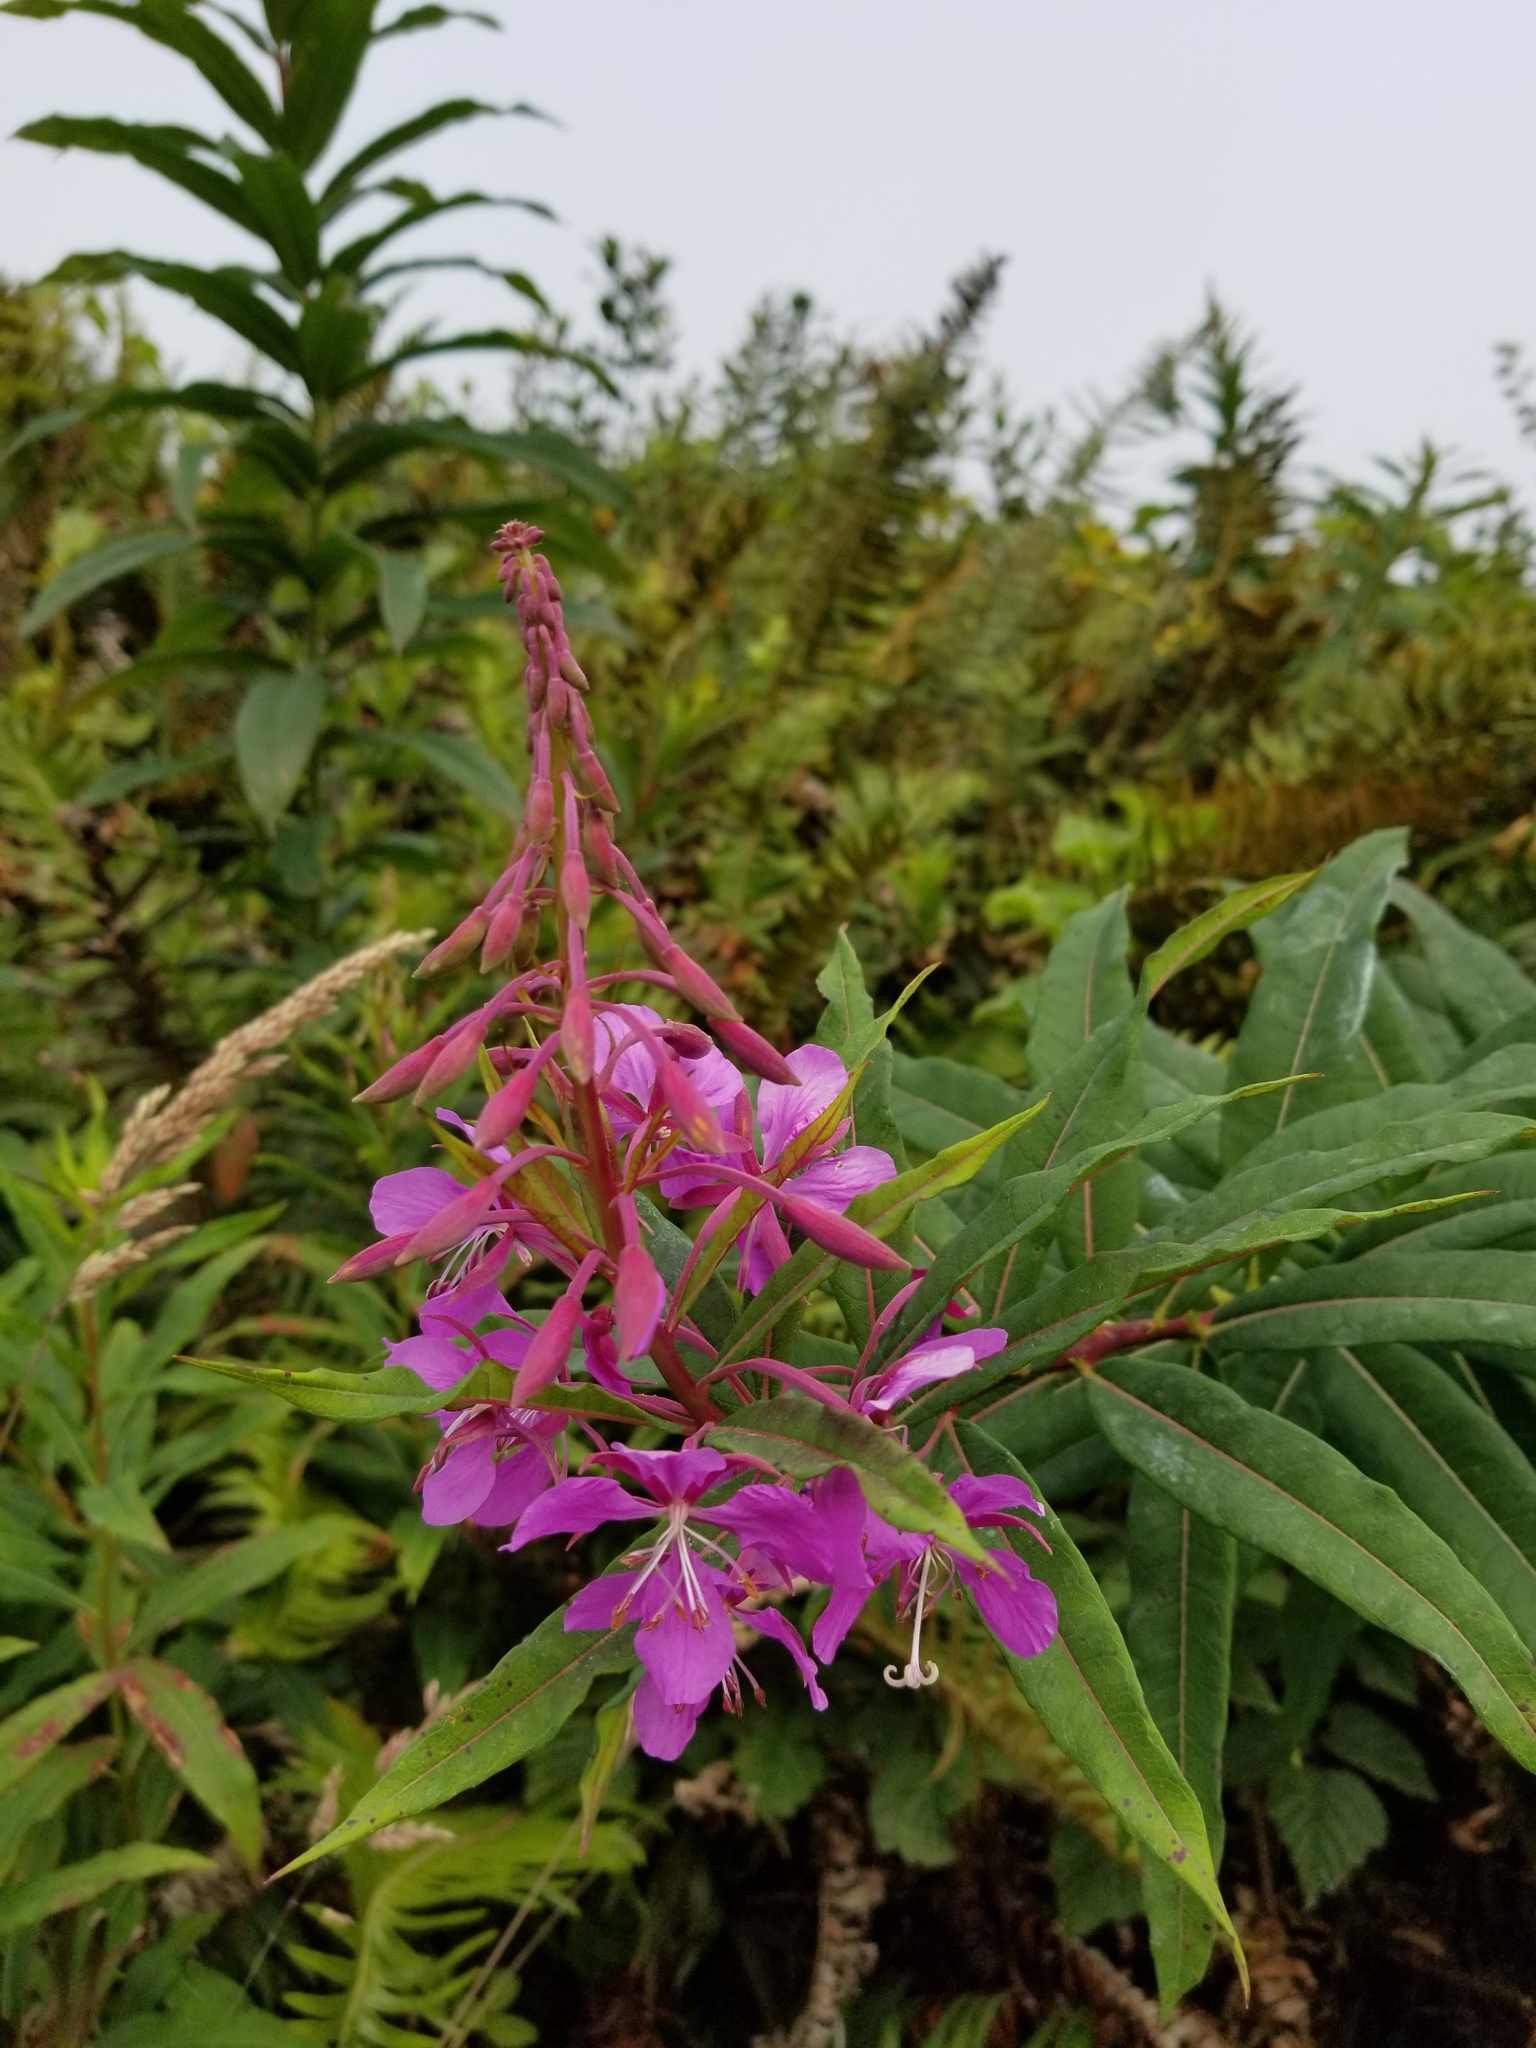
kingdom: Plantae
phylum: Tracheophyta
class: Magnoliopsida
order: Myrtales
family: Onagraceae
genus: Chamaenerion
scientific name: Chamaenerion angustifolium
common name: Fireweed
